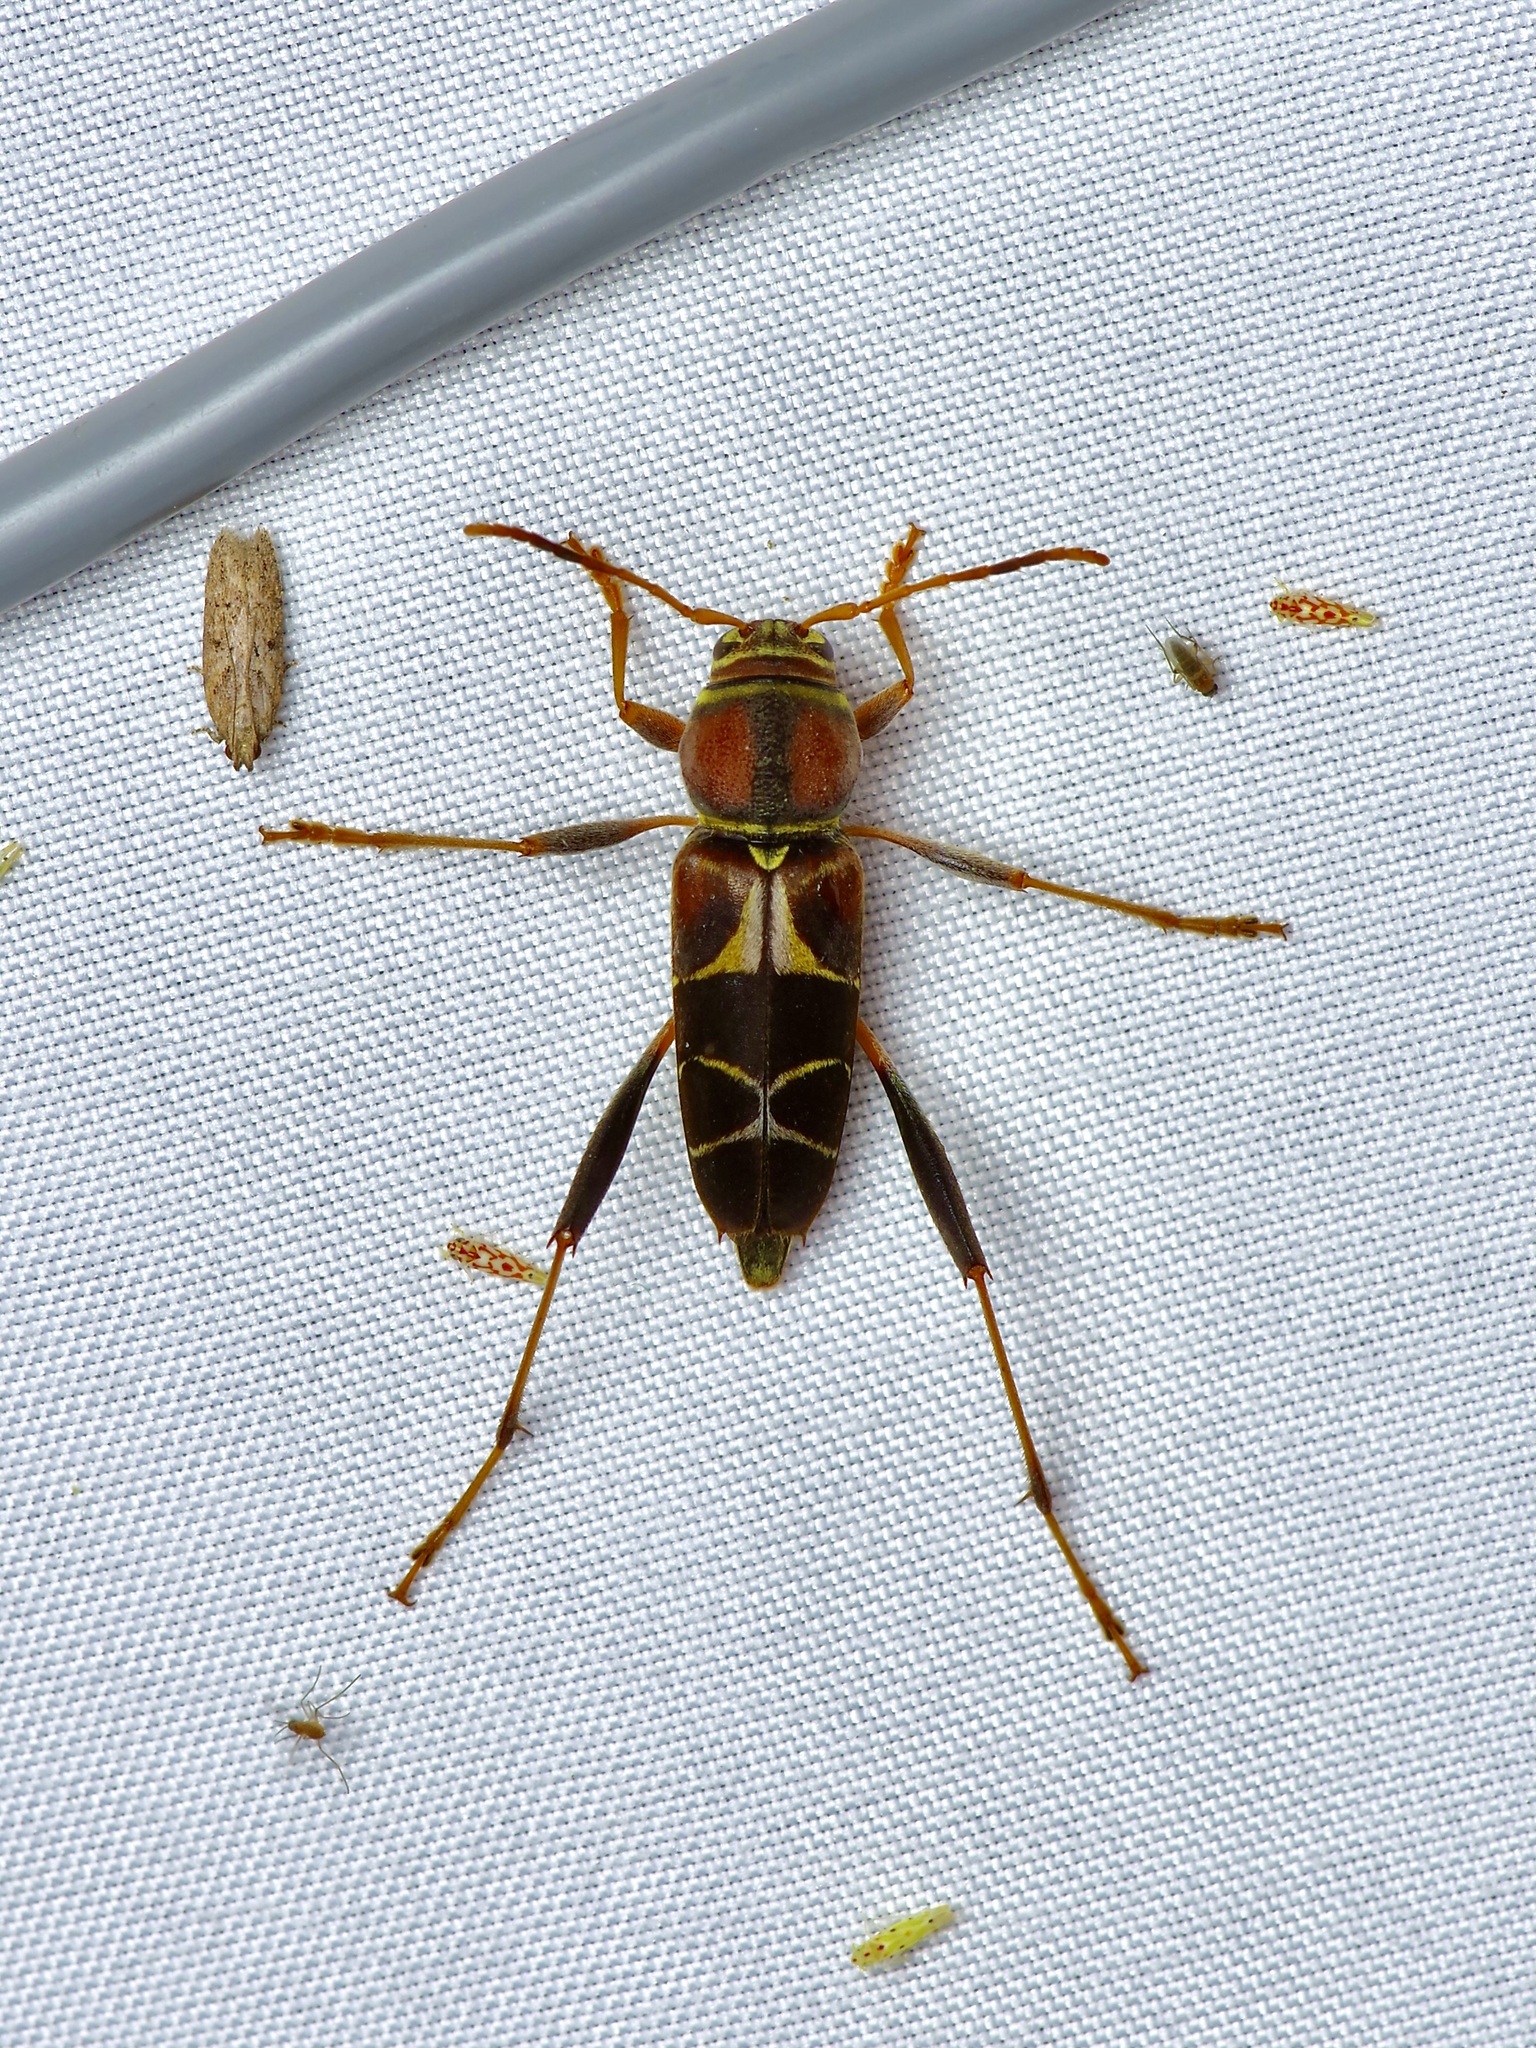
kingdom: Animalia
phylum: Arthropoda
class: Insecta
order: Coleoptera
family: Cerambycidae
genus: Neoclytus
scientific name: Neoclytus mucronatus
